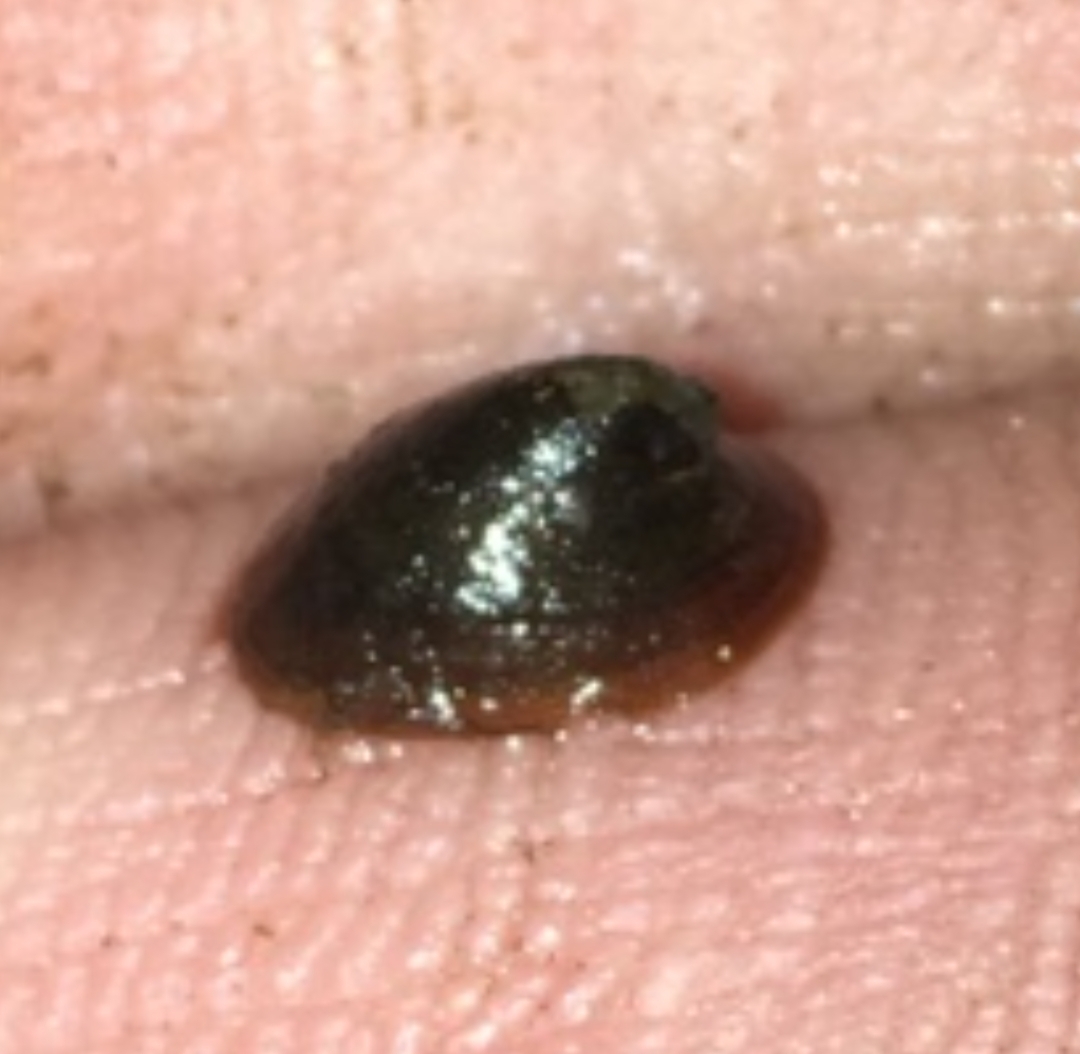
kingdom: Animalia
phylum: Mollusca
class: Gastropoda
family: Planorbidae
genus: Ancylus
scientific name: Ancylus fluviatilis
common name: River limpet
